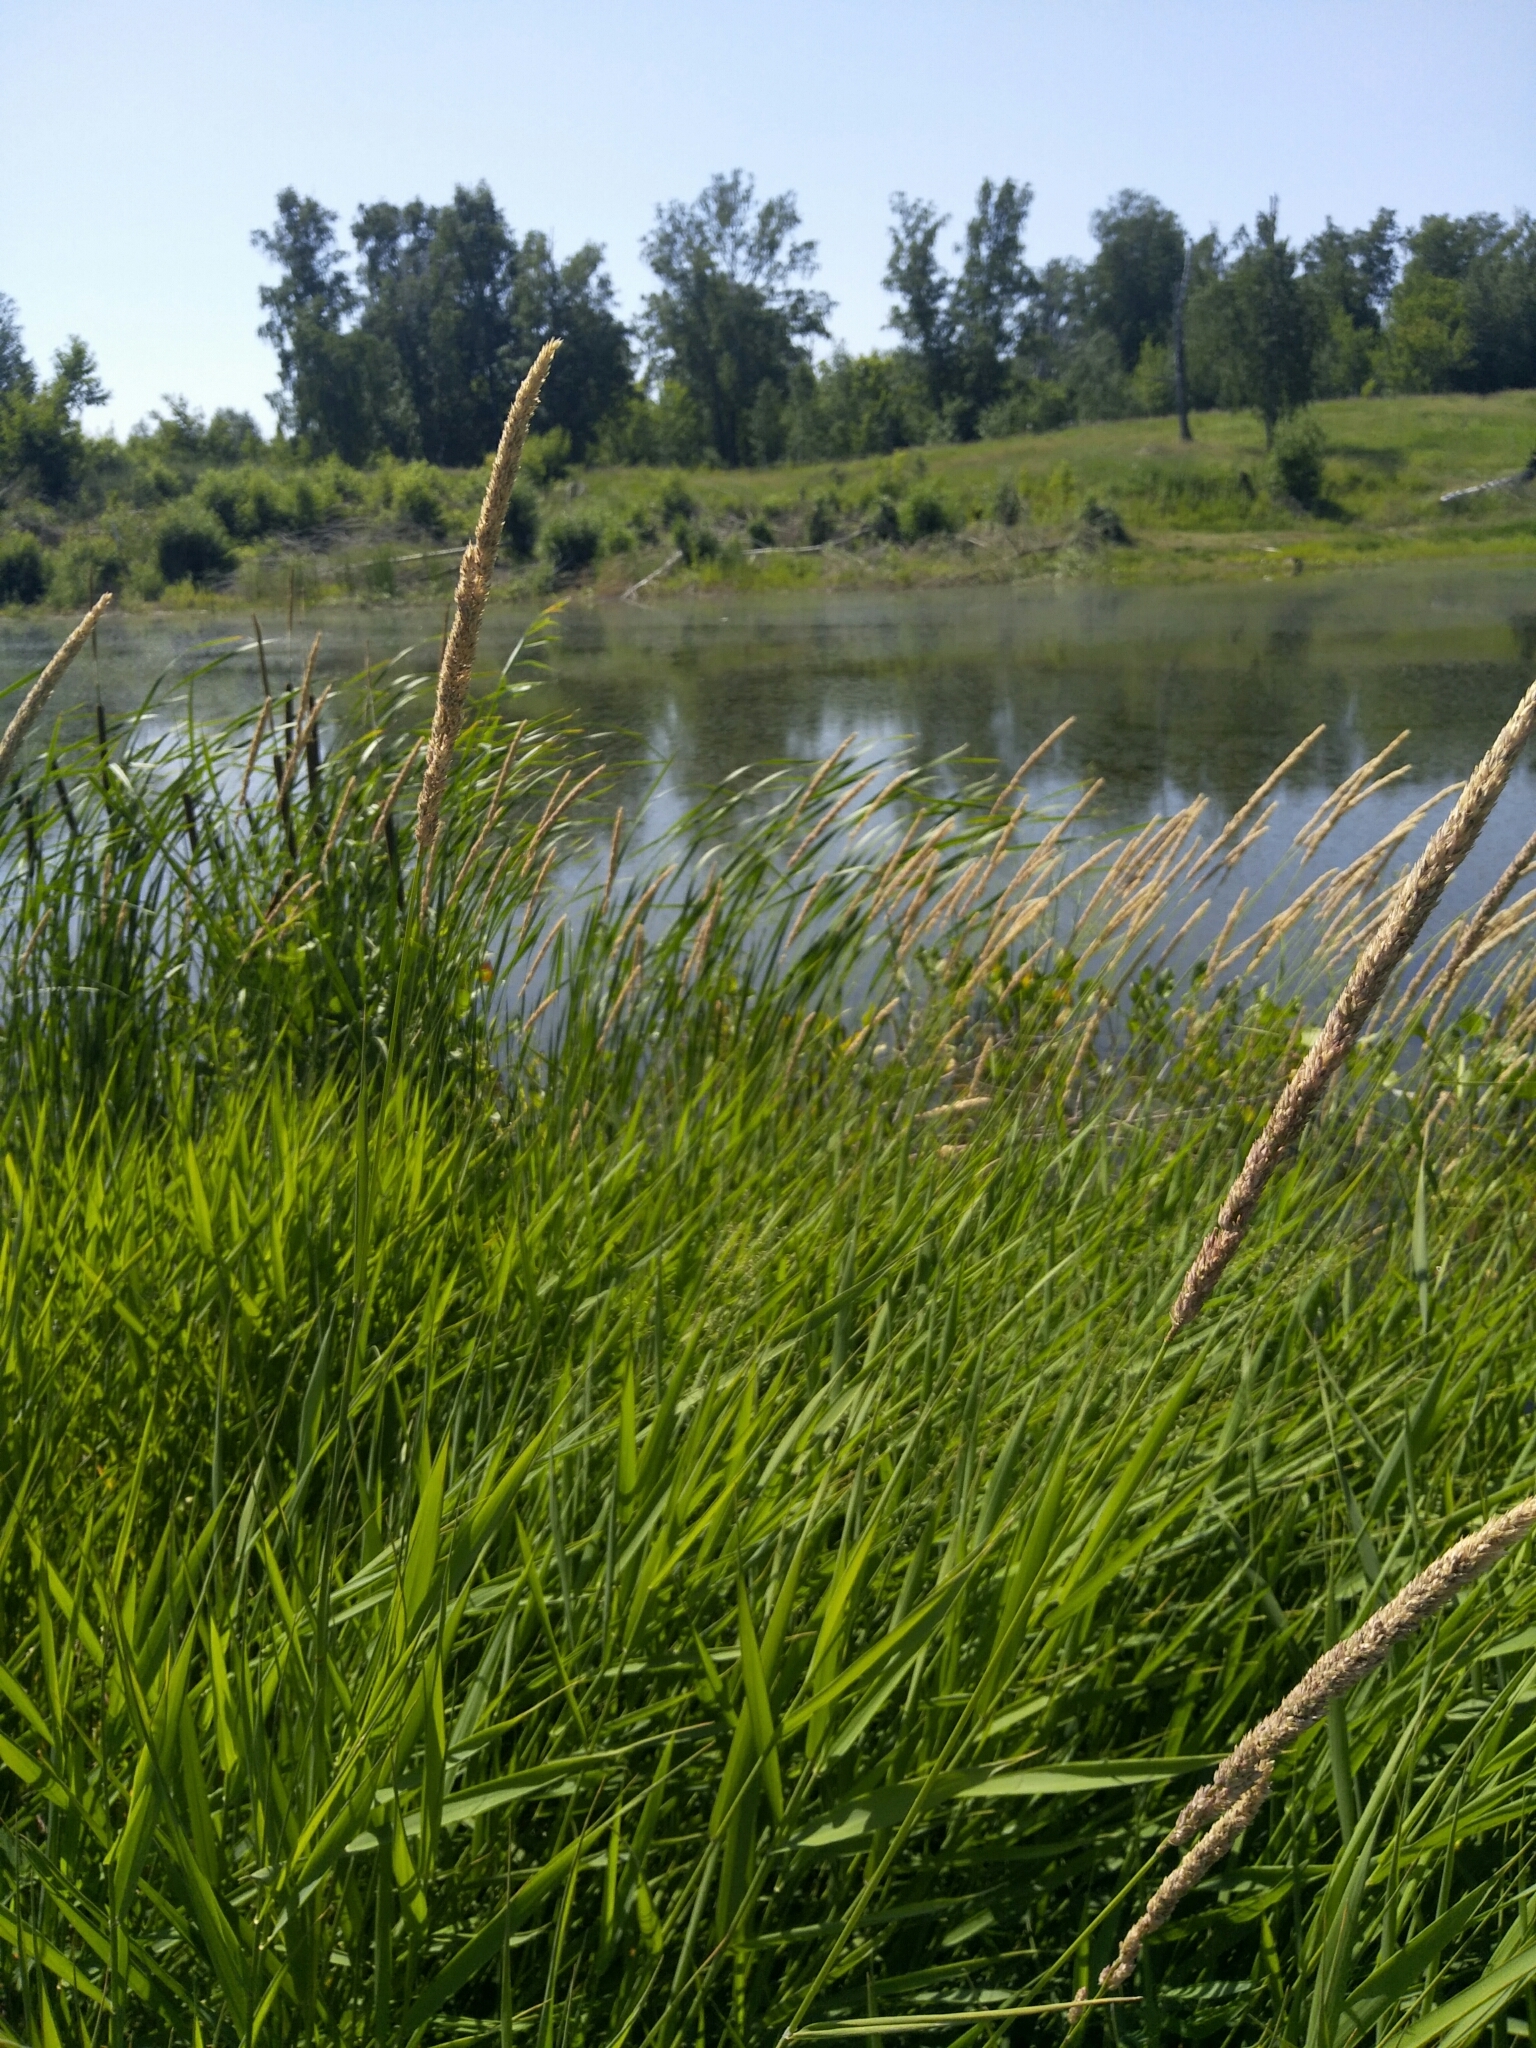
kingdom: Plantae
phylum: Tracheophyta
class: Liliopsida
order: Poales
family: Poaceae
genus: Phalaris
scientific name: Phalaris arundinacea
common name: Reed canary-grass
